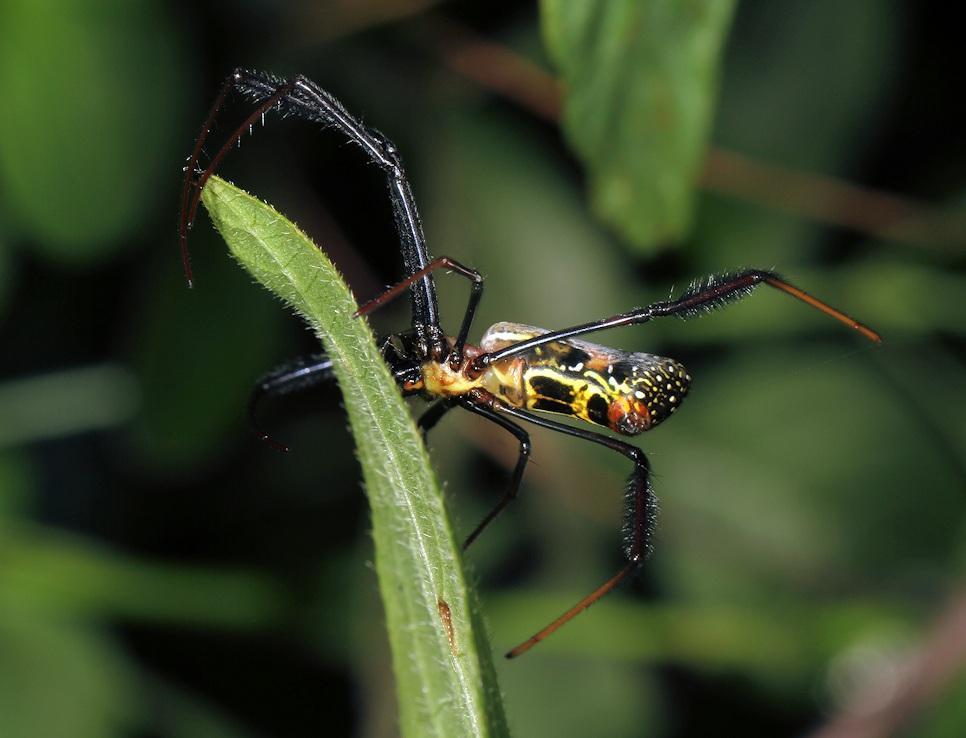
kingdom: Animalia
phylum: Arthropoda
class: Arachnida
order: Araneae
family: Araneidae
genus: Trichonephila
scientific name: Trichonephila fenestrata
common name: Hairy golden orb weaver
